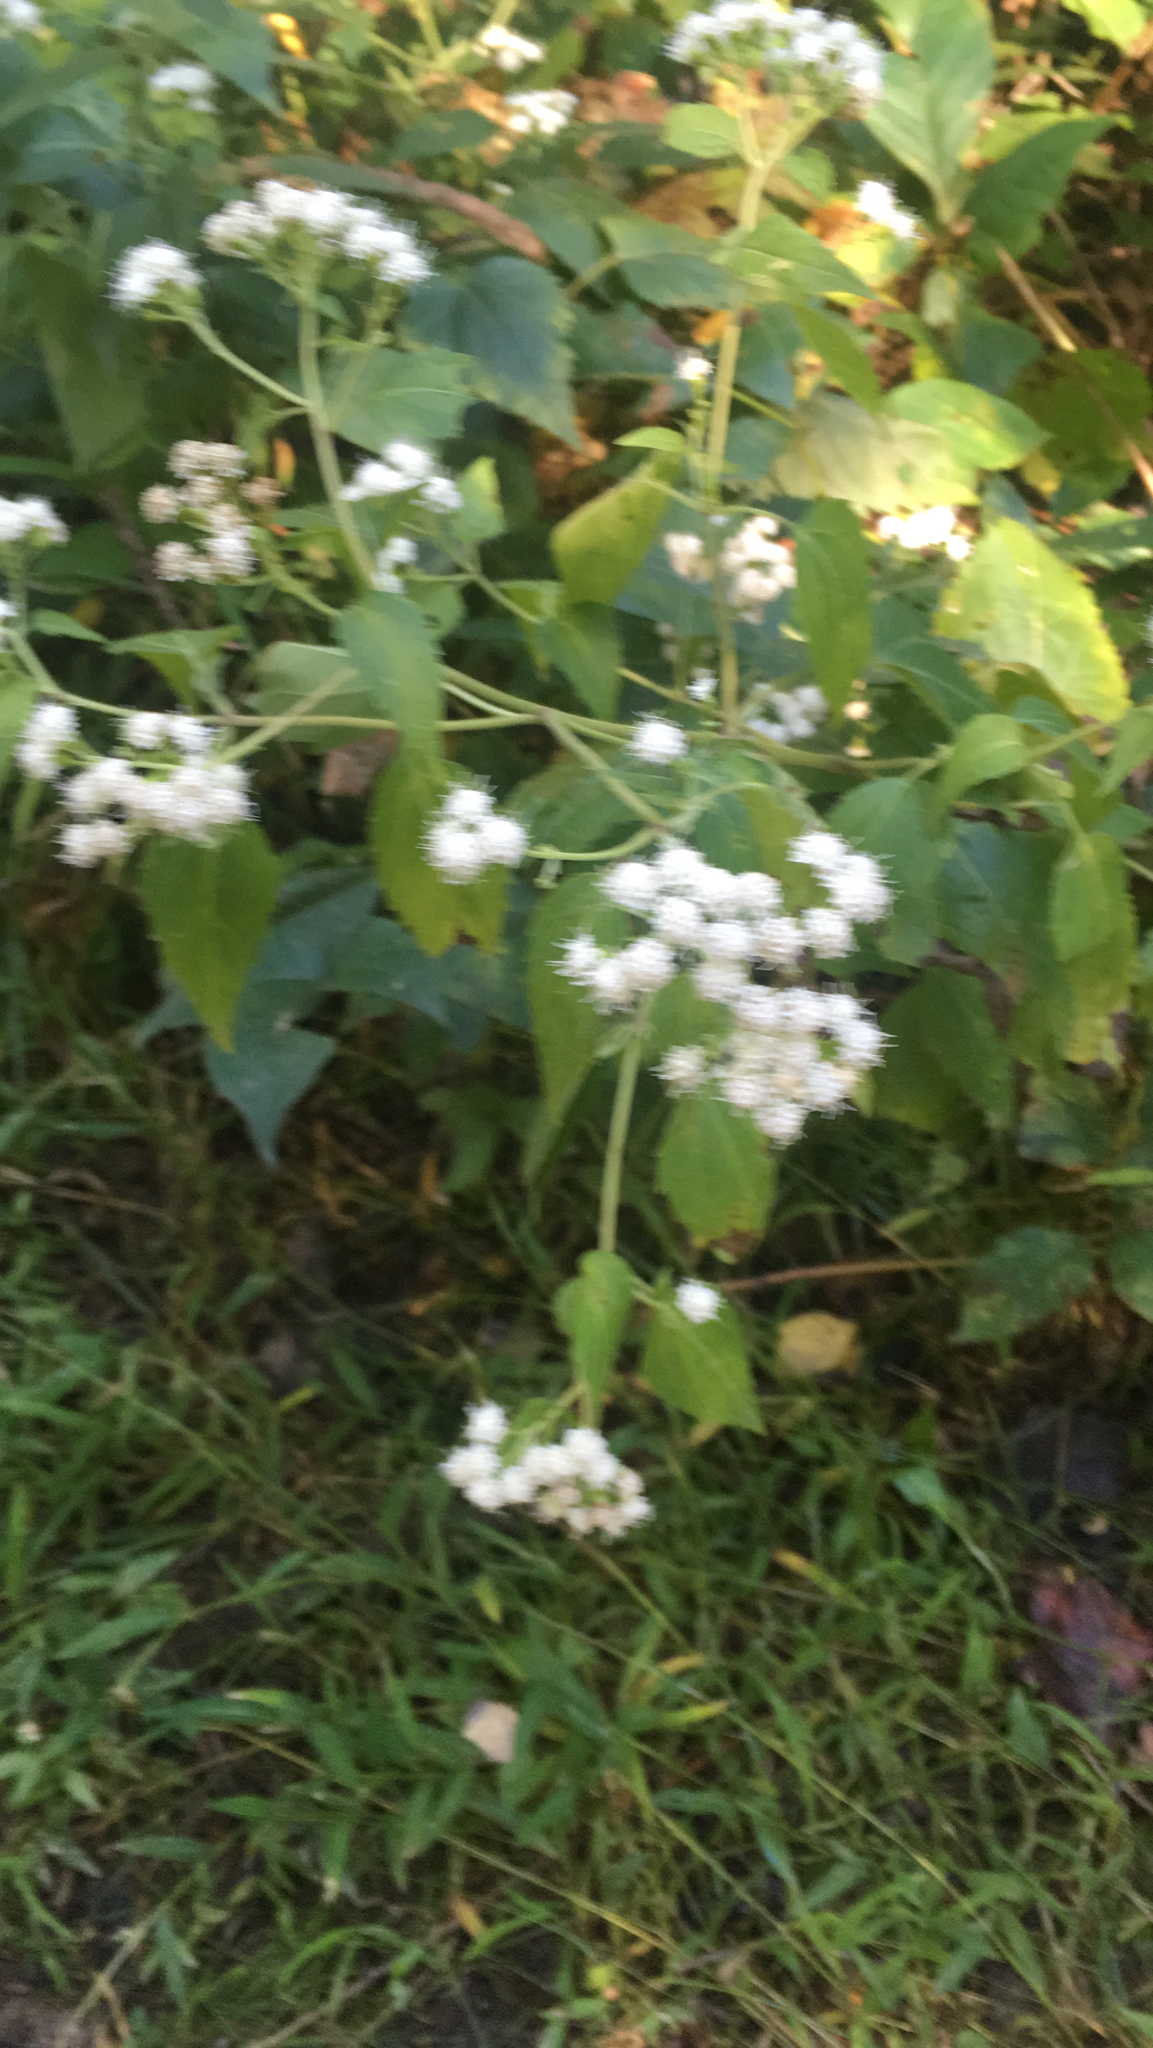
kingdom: Plantae
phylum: Tracheophyta
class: Magnoliopsida
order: Asterales
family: Asteraceae
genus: Ageratina
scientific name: Ageratina altissima
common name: White snakeroot
